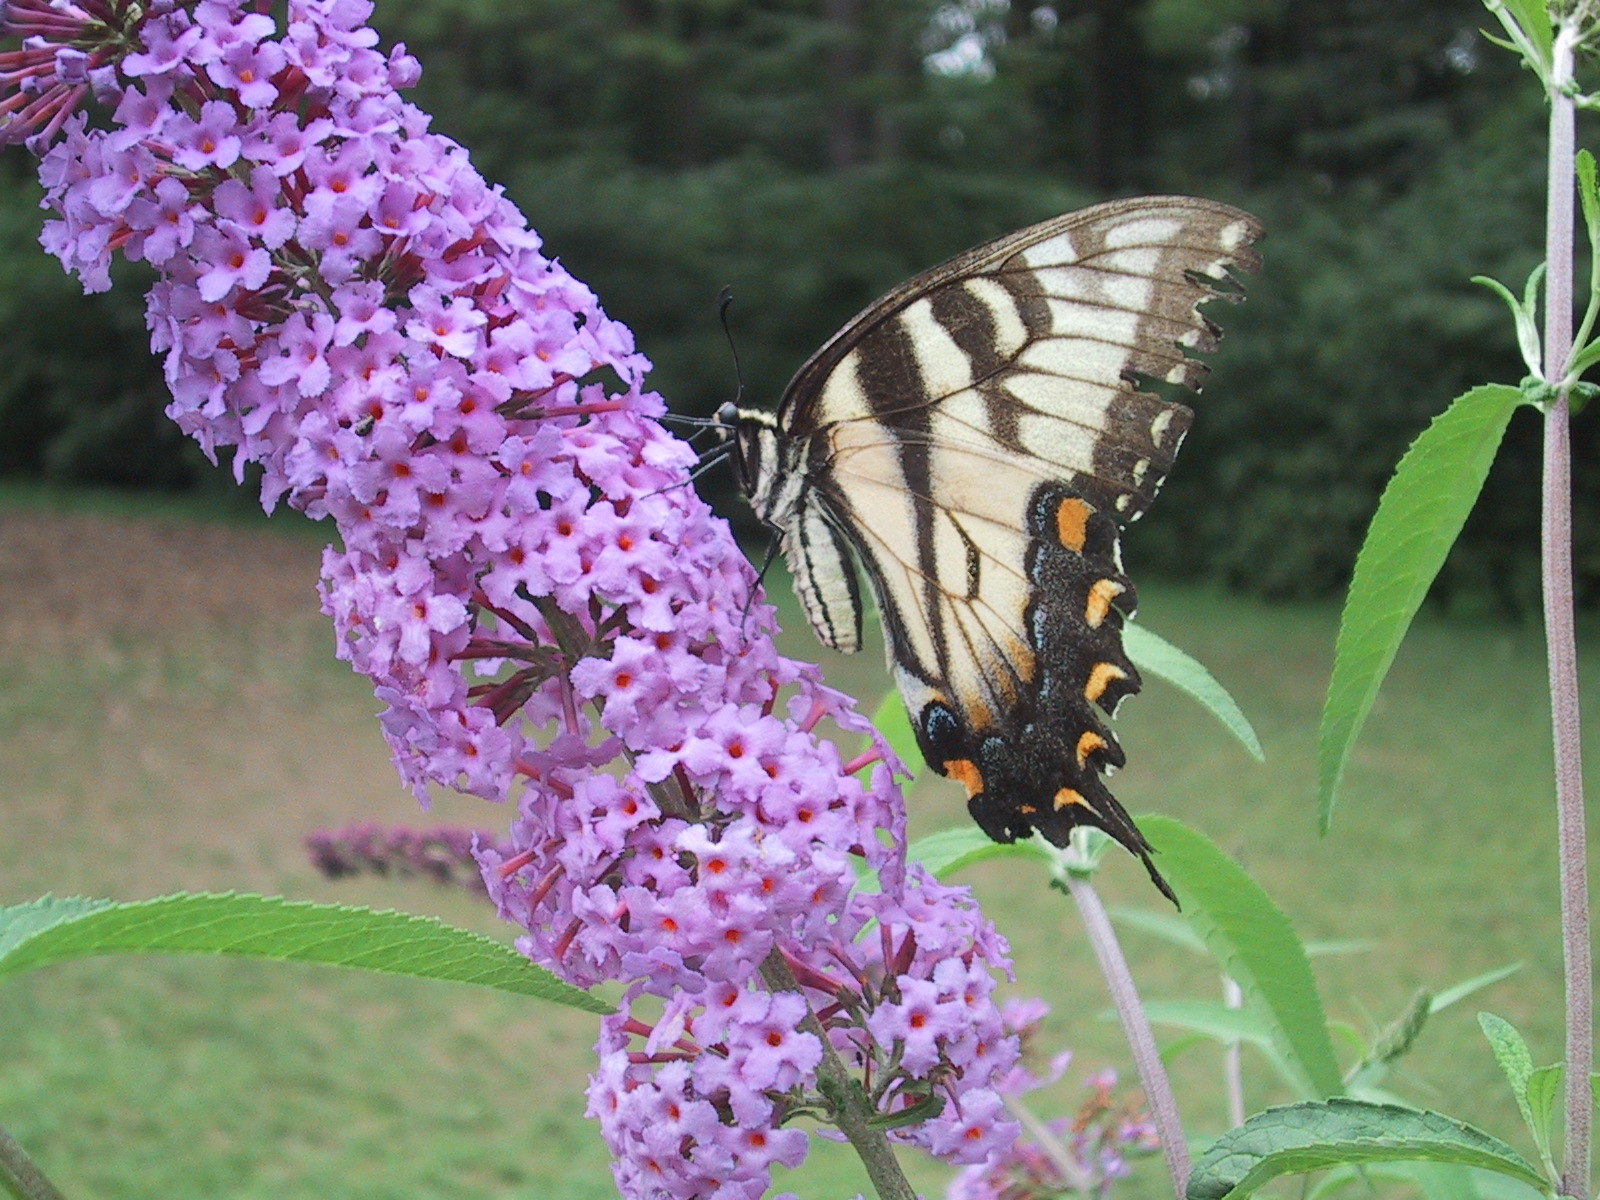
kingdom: Animalia
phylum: Arthropoda
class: Insecta
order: Lepidoptera
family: Papilionidae
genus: Papilio
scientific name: Papilio glaucus
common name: Tiger swallowtail
